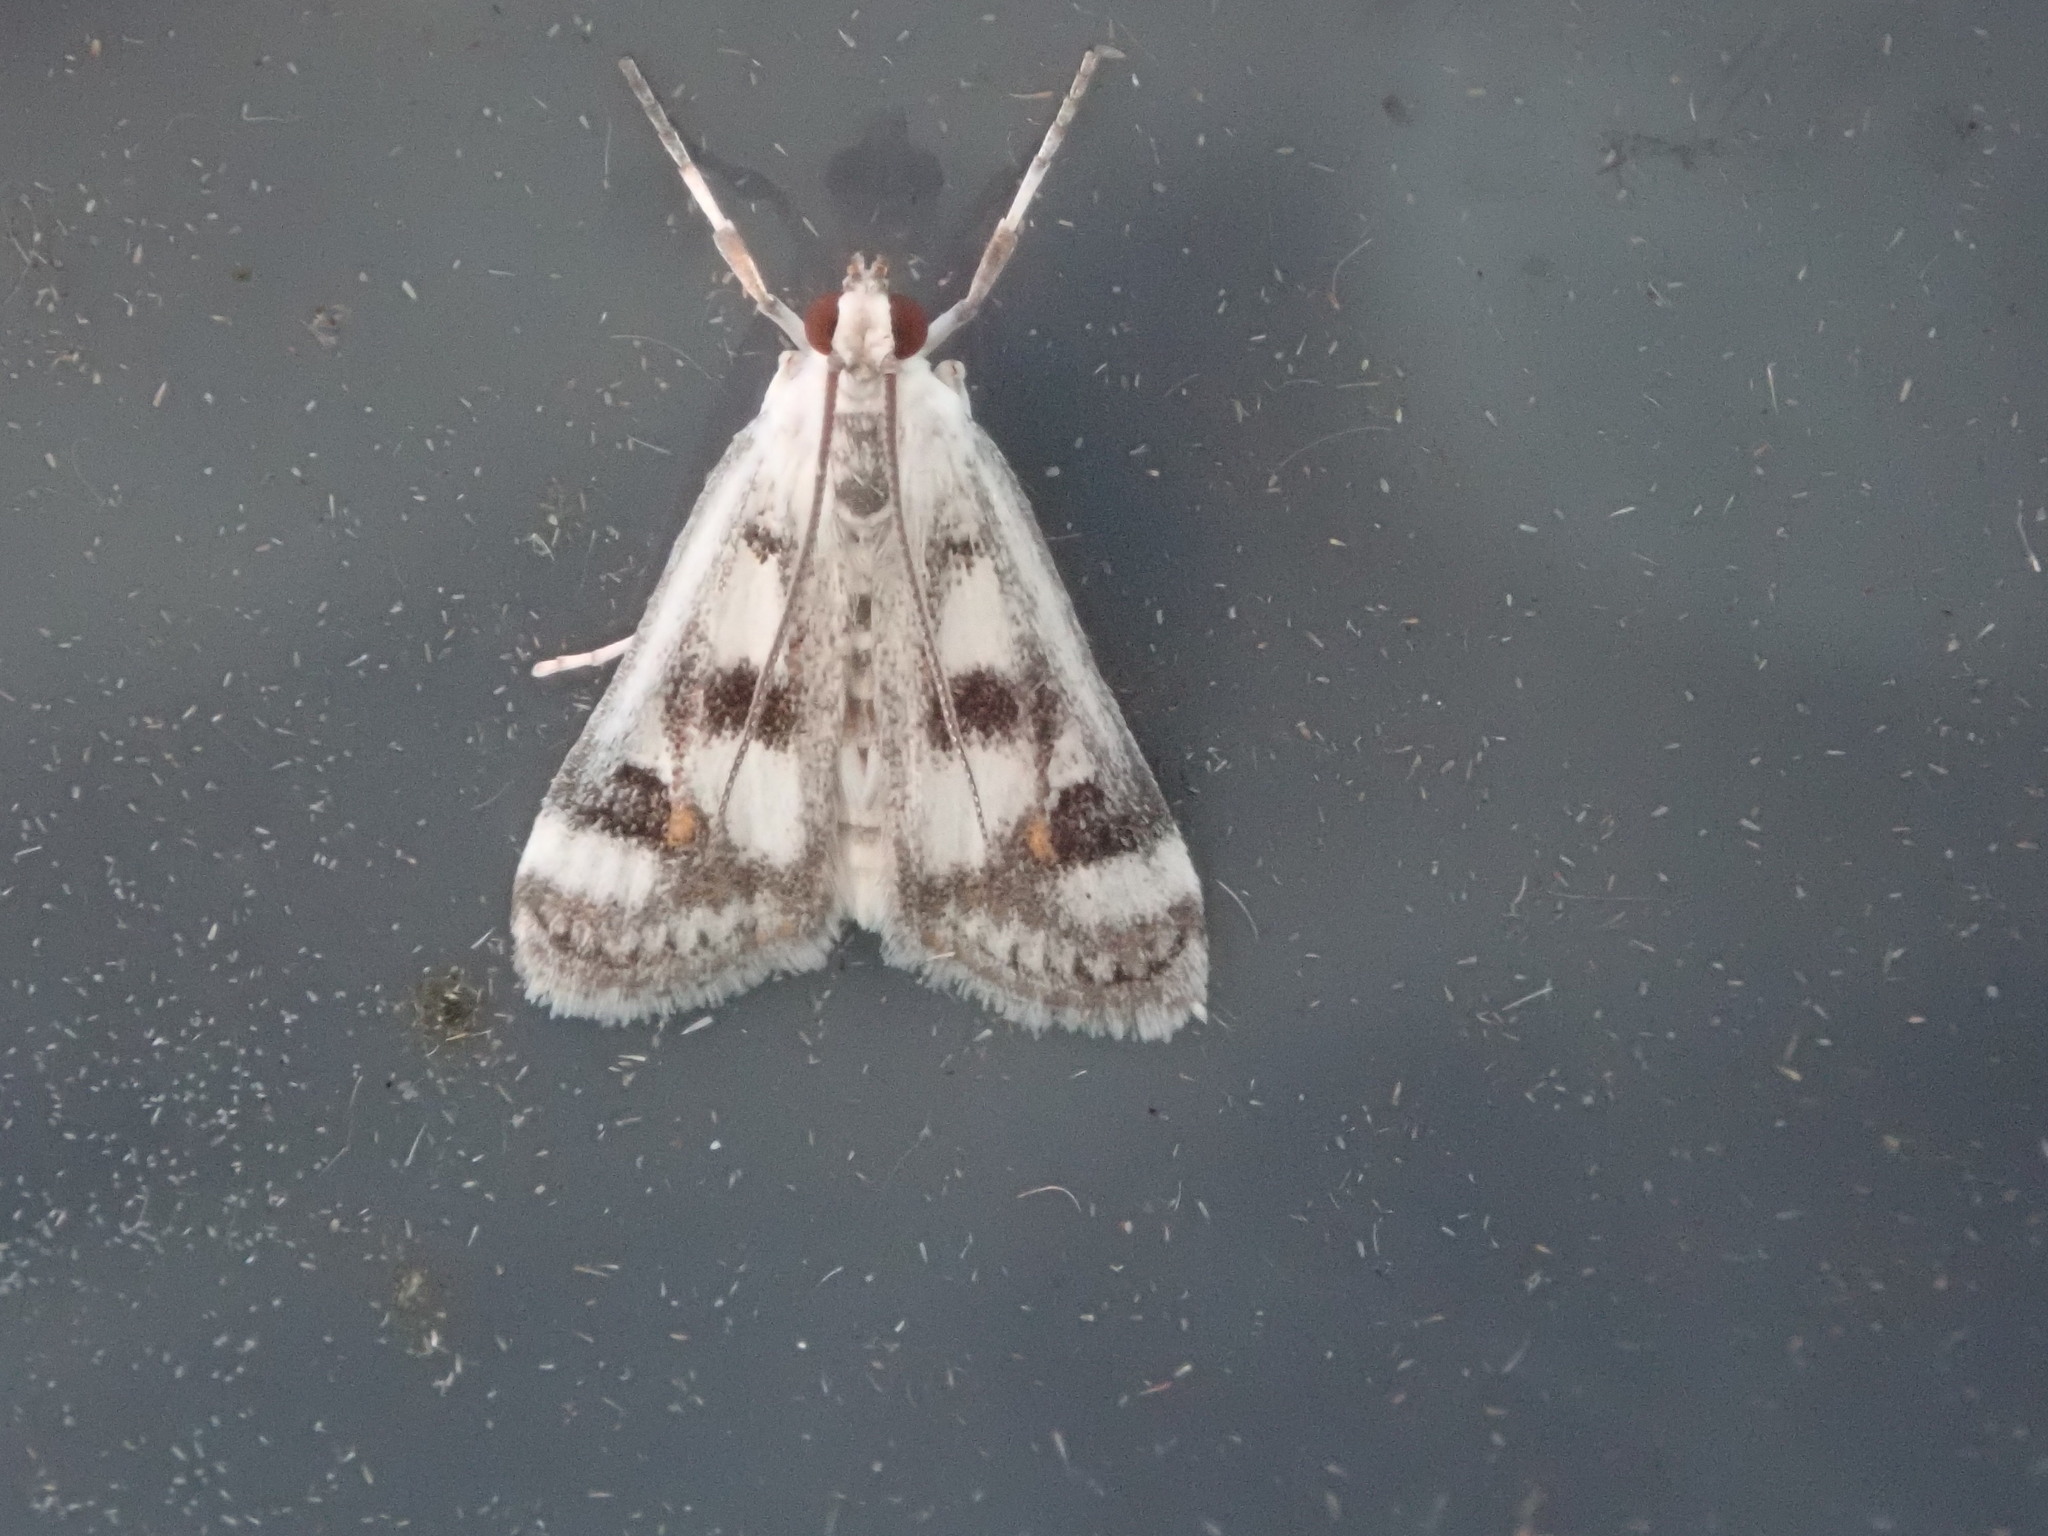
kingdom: Animalia
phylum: Arthropoda
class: Insecta
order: Lepidoptera
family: Crambidae
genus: Parapoynx
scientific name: Parapoynx maculalis
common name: Polymorphic pondweed moth
